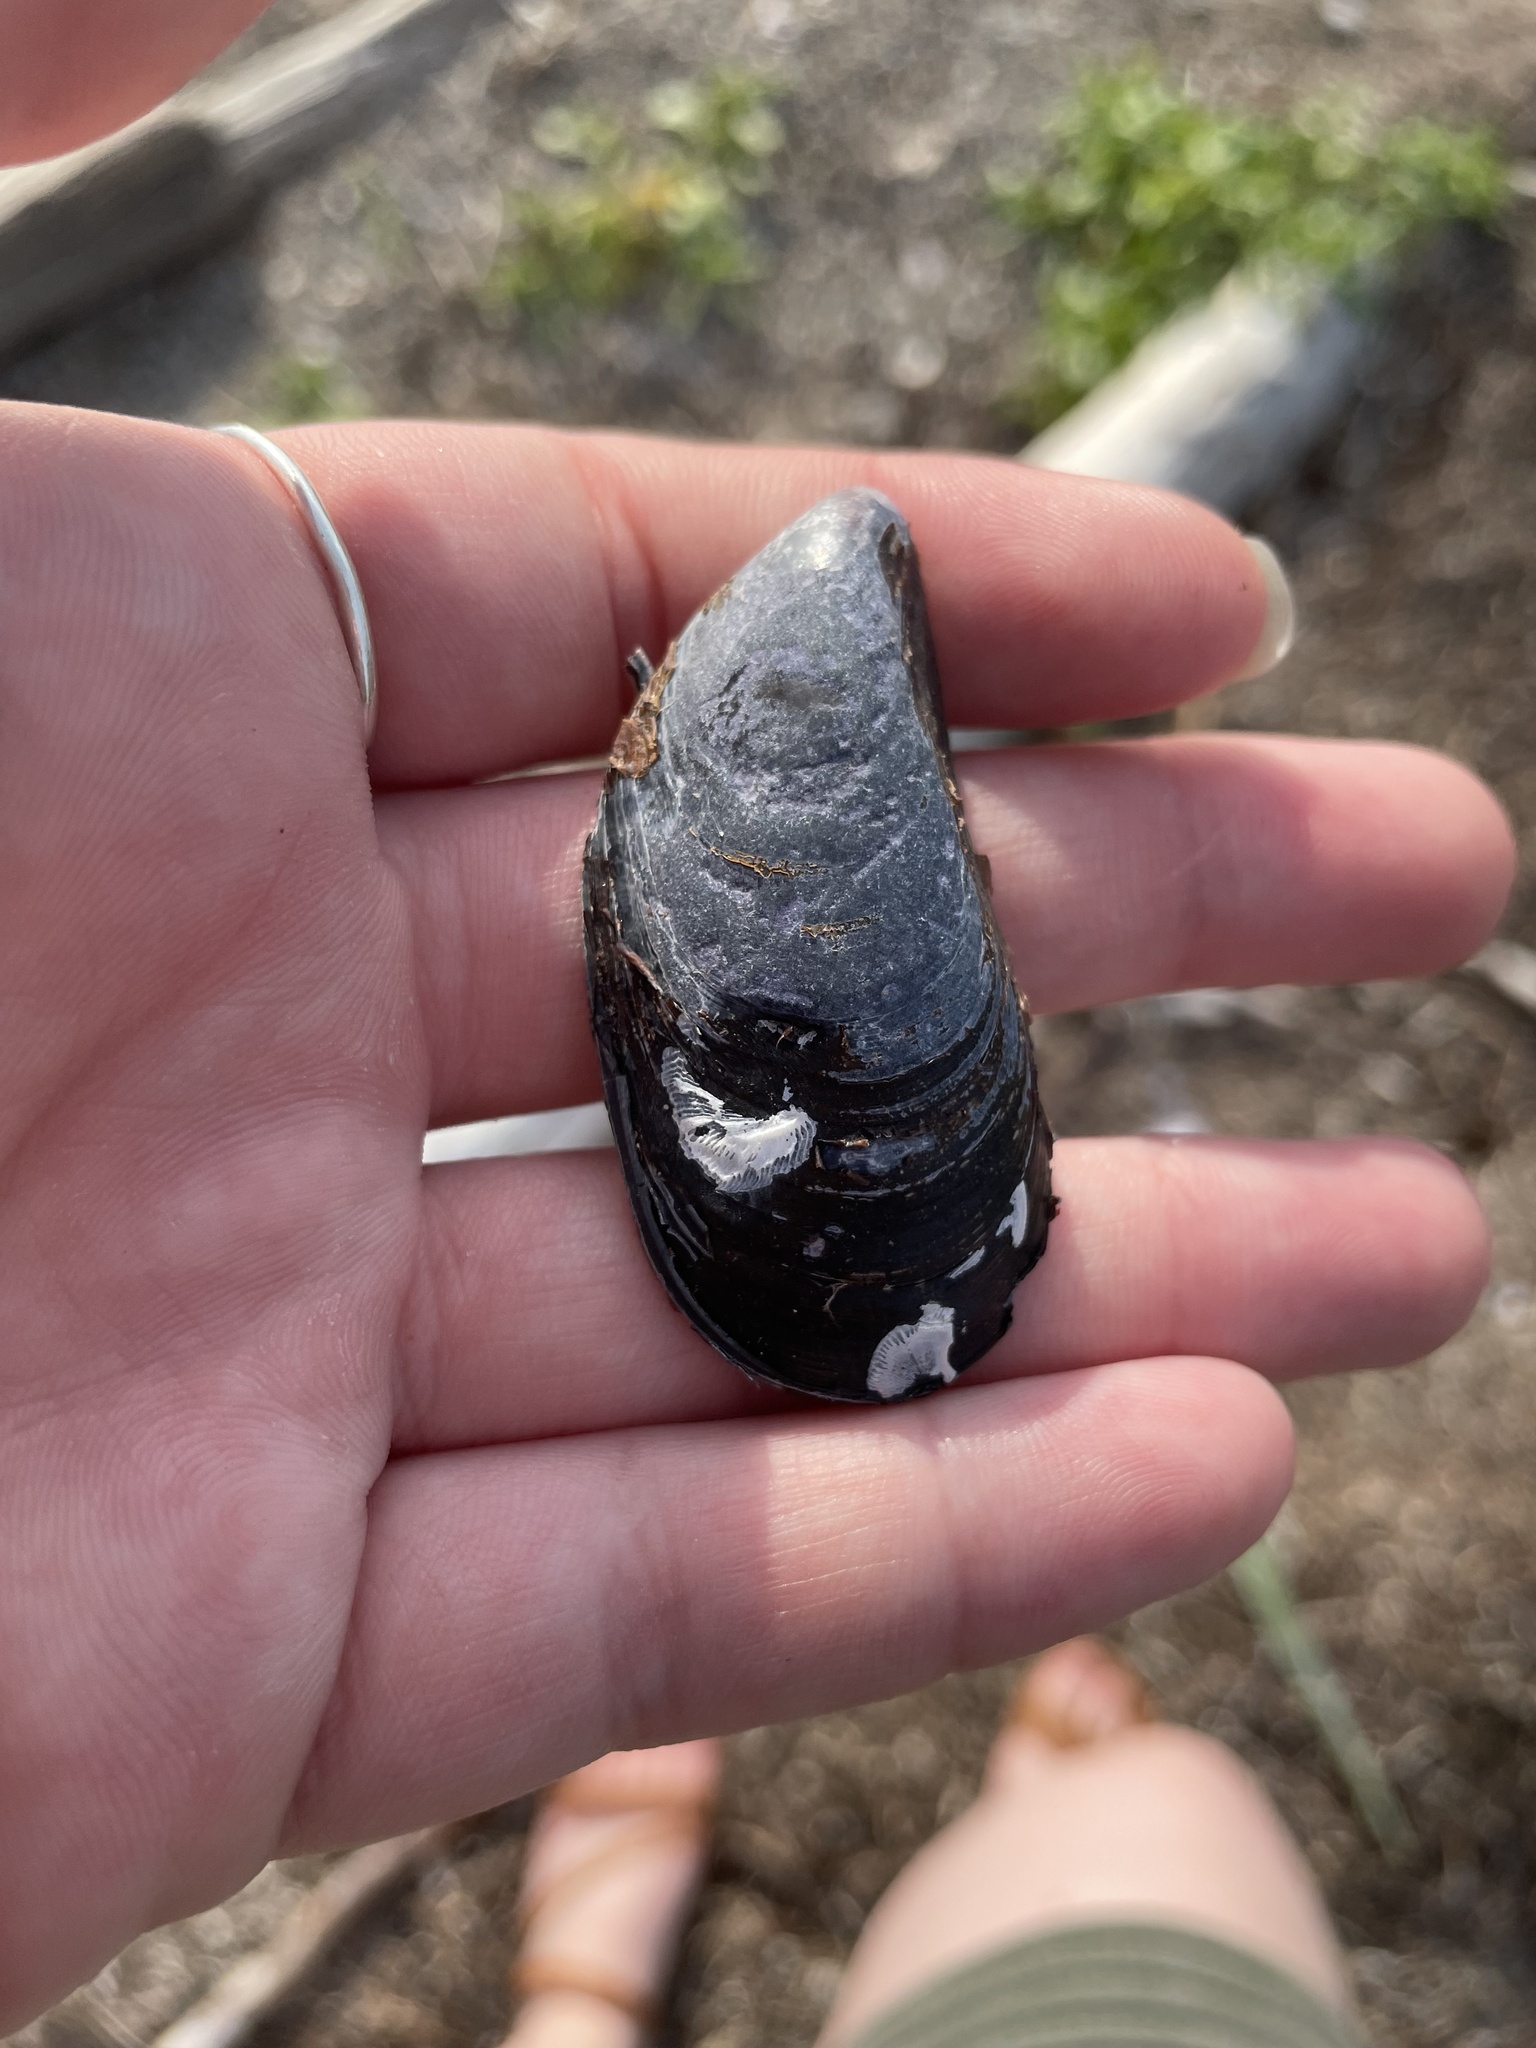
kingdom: Animalia
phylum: Mollusca
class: Bivalvia
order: Mytilida
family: Mytilidae
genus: Mytilus
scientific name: Mytilus
